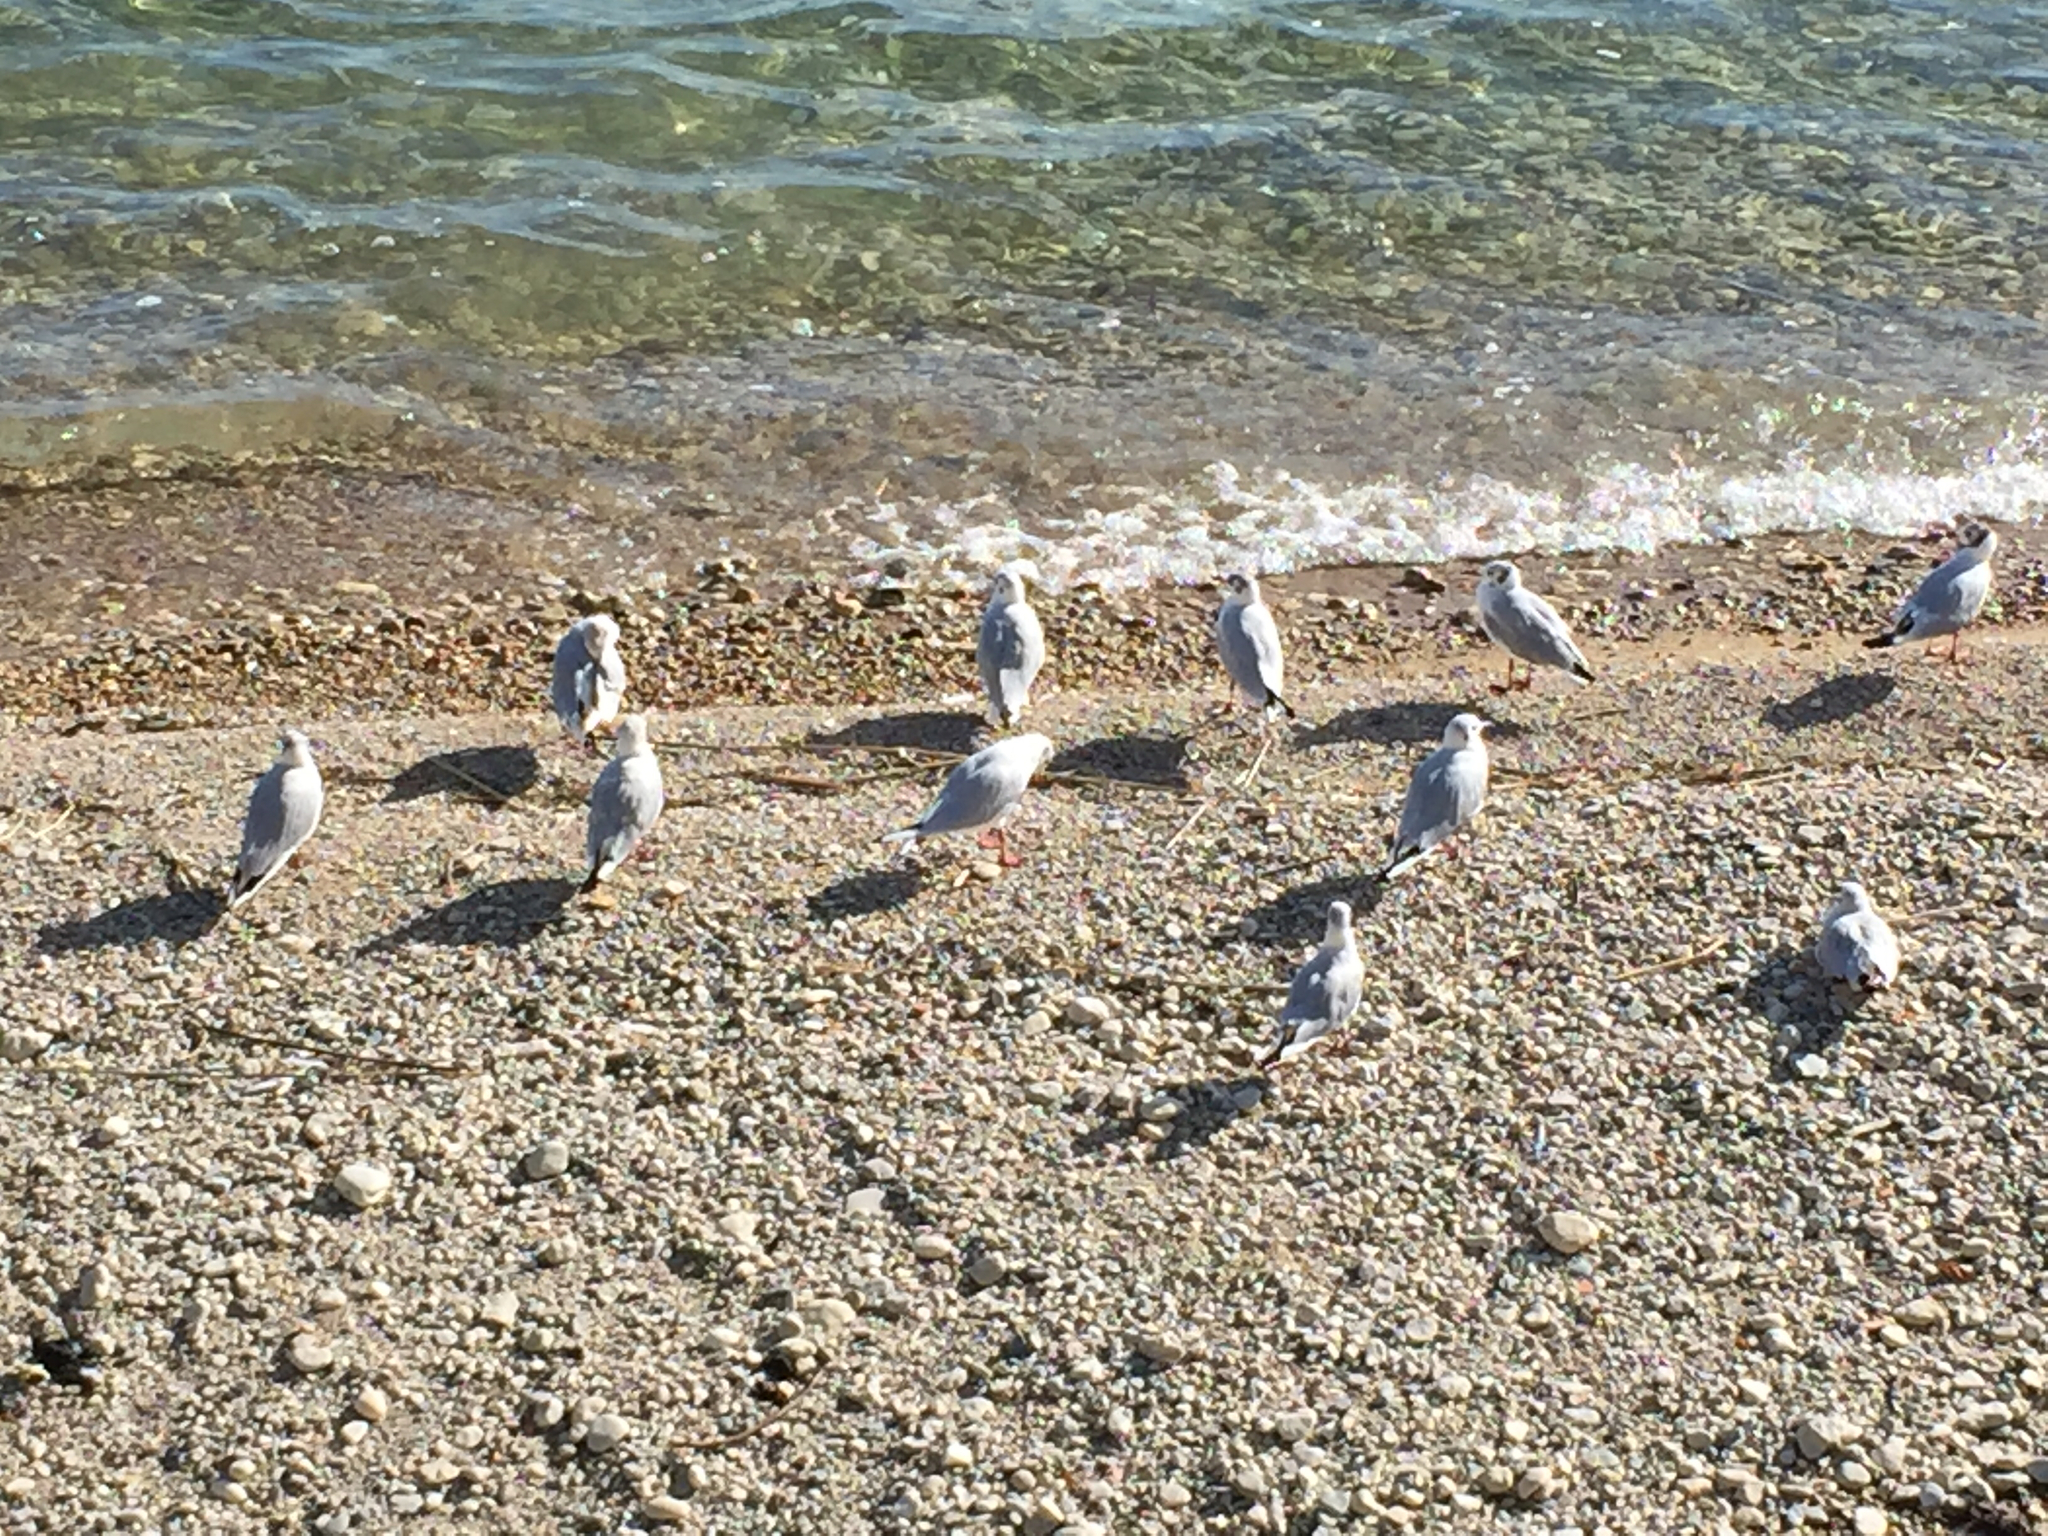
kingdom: Animalia
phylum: Chordata
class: Aves
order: Charadriiformes
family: Laridae
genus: Chroicocephalus
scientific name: Chroicocephalus ridibundus
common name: Black-headed gull
